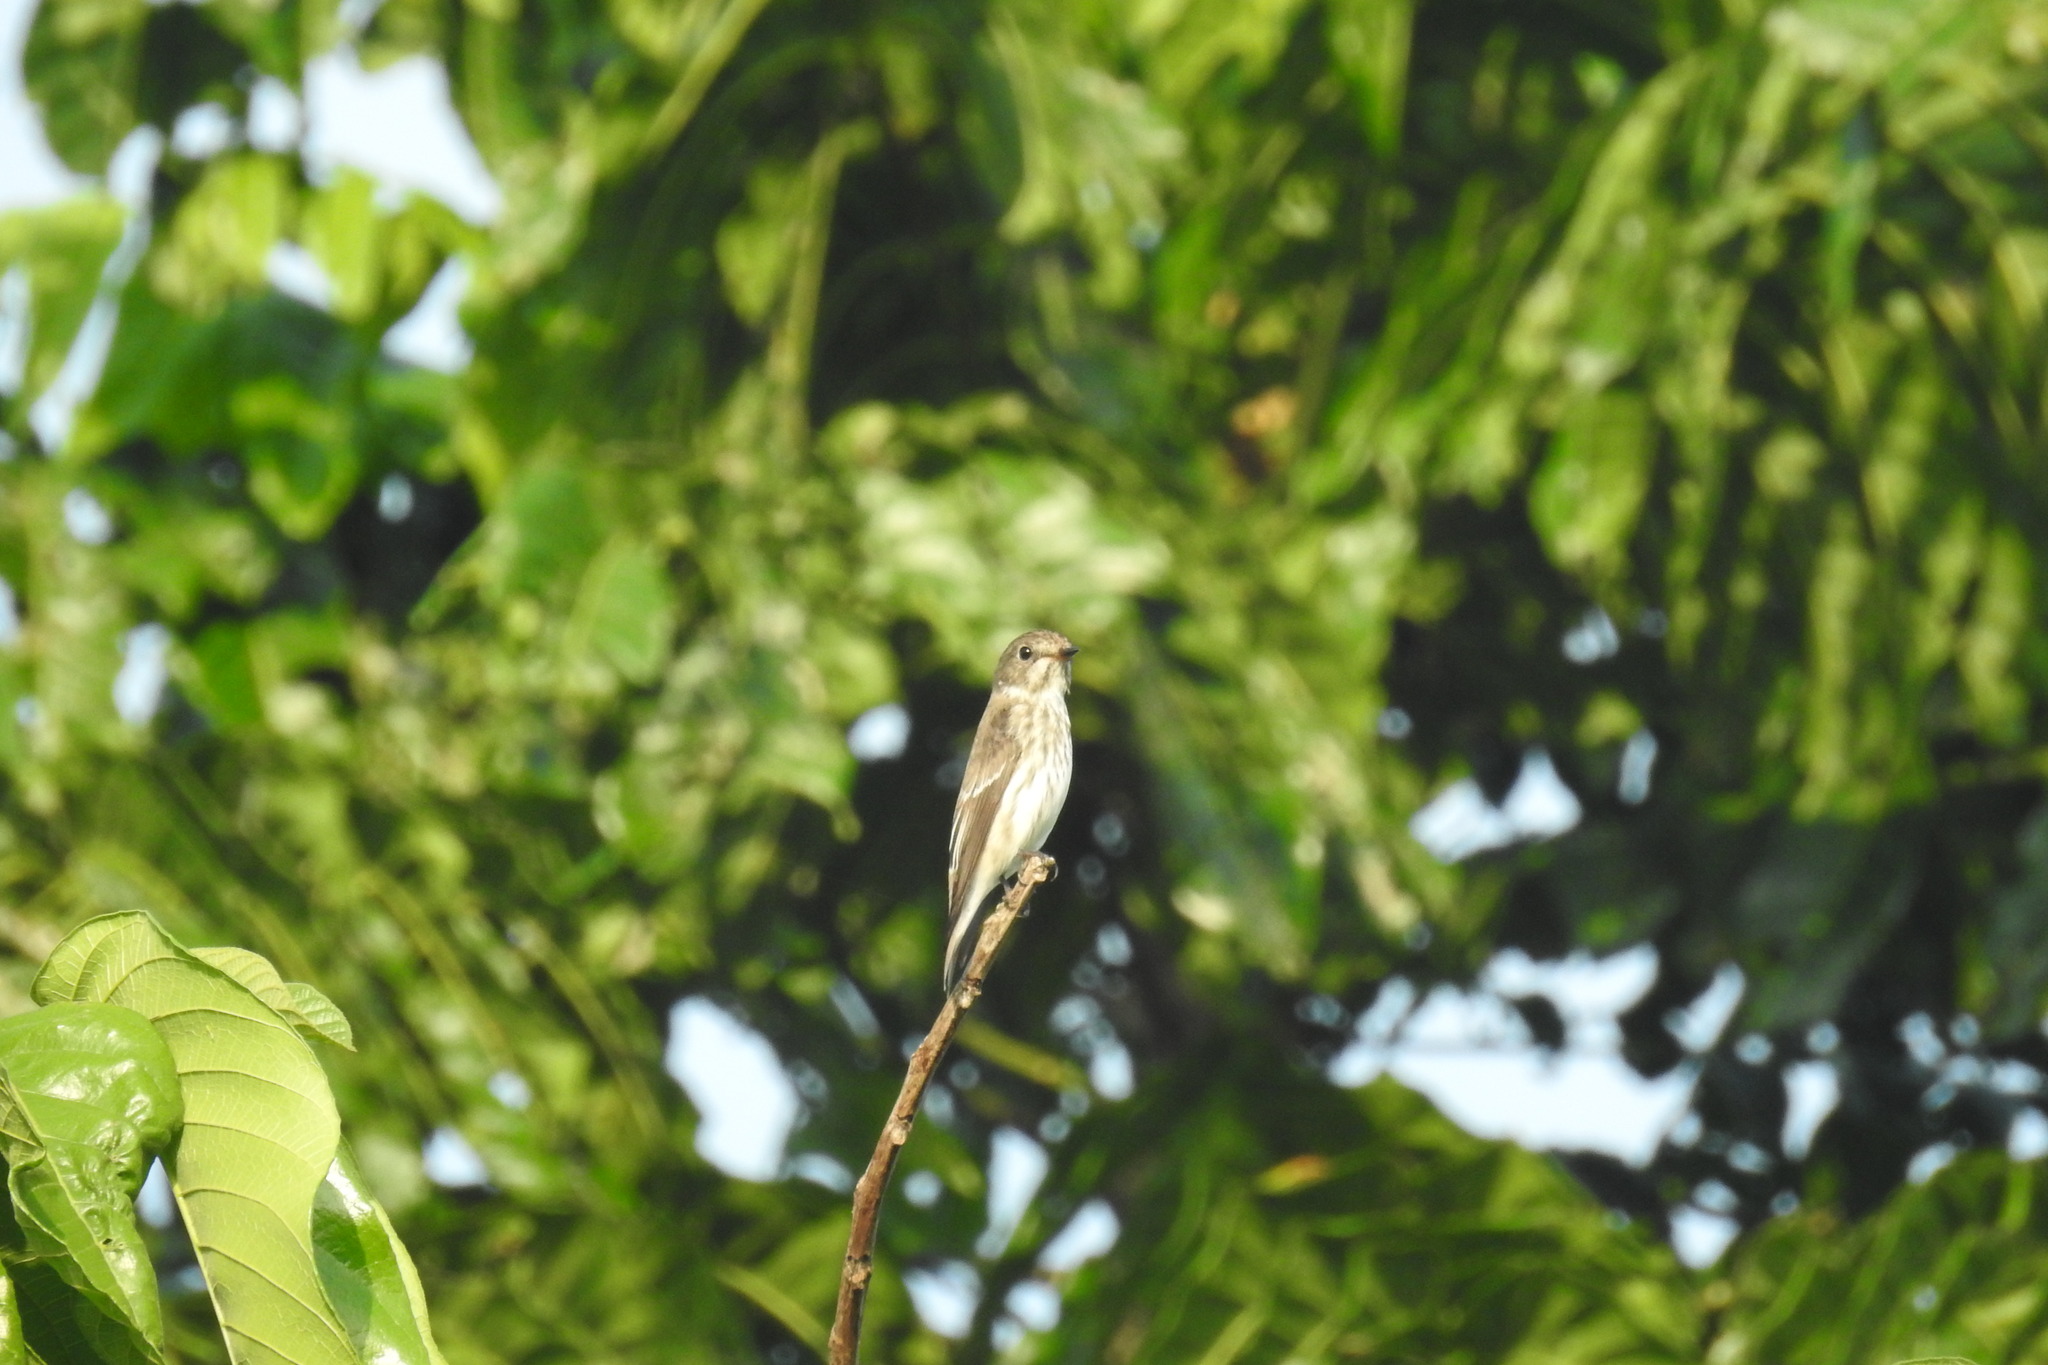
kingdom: Animalia
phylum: Chordata
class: Aves
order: Passeriformes
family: Muscicapidae
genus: Muscicapa
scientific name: Muscicapa griseisticta
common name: Gray-streaked flycatcher
